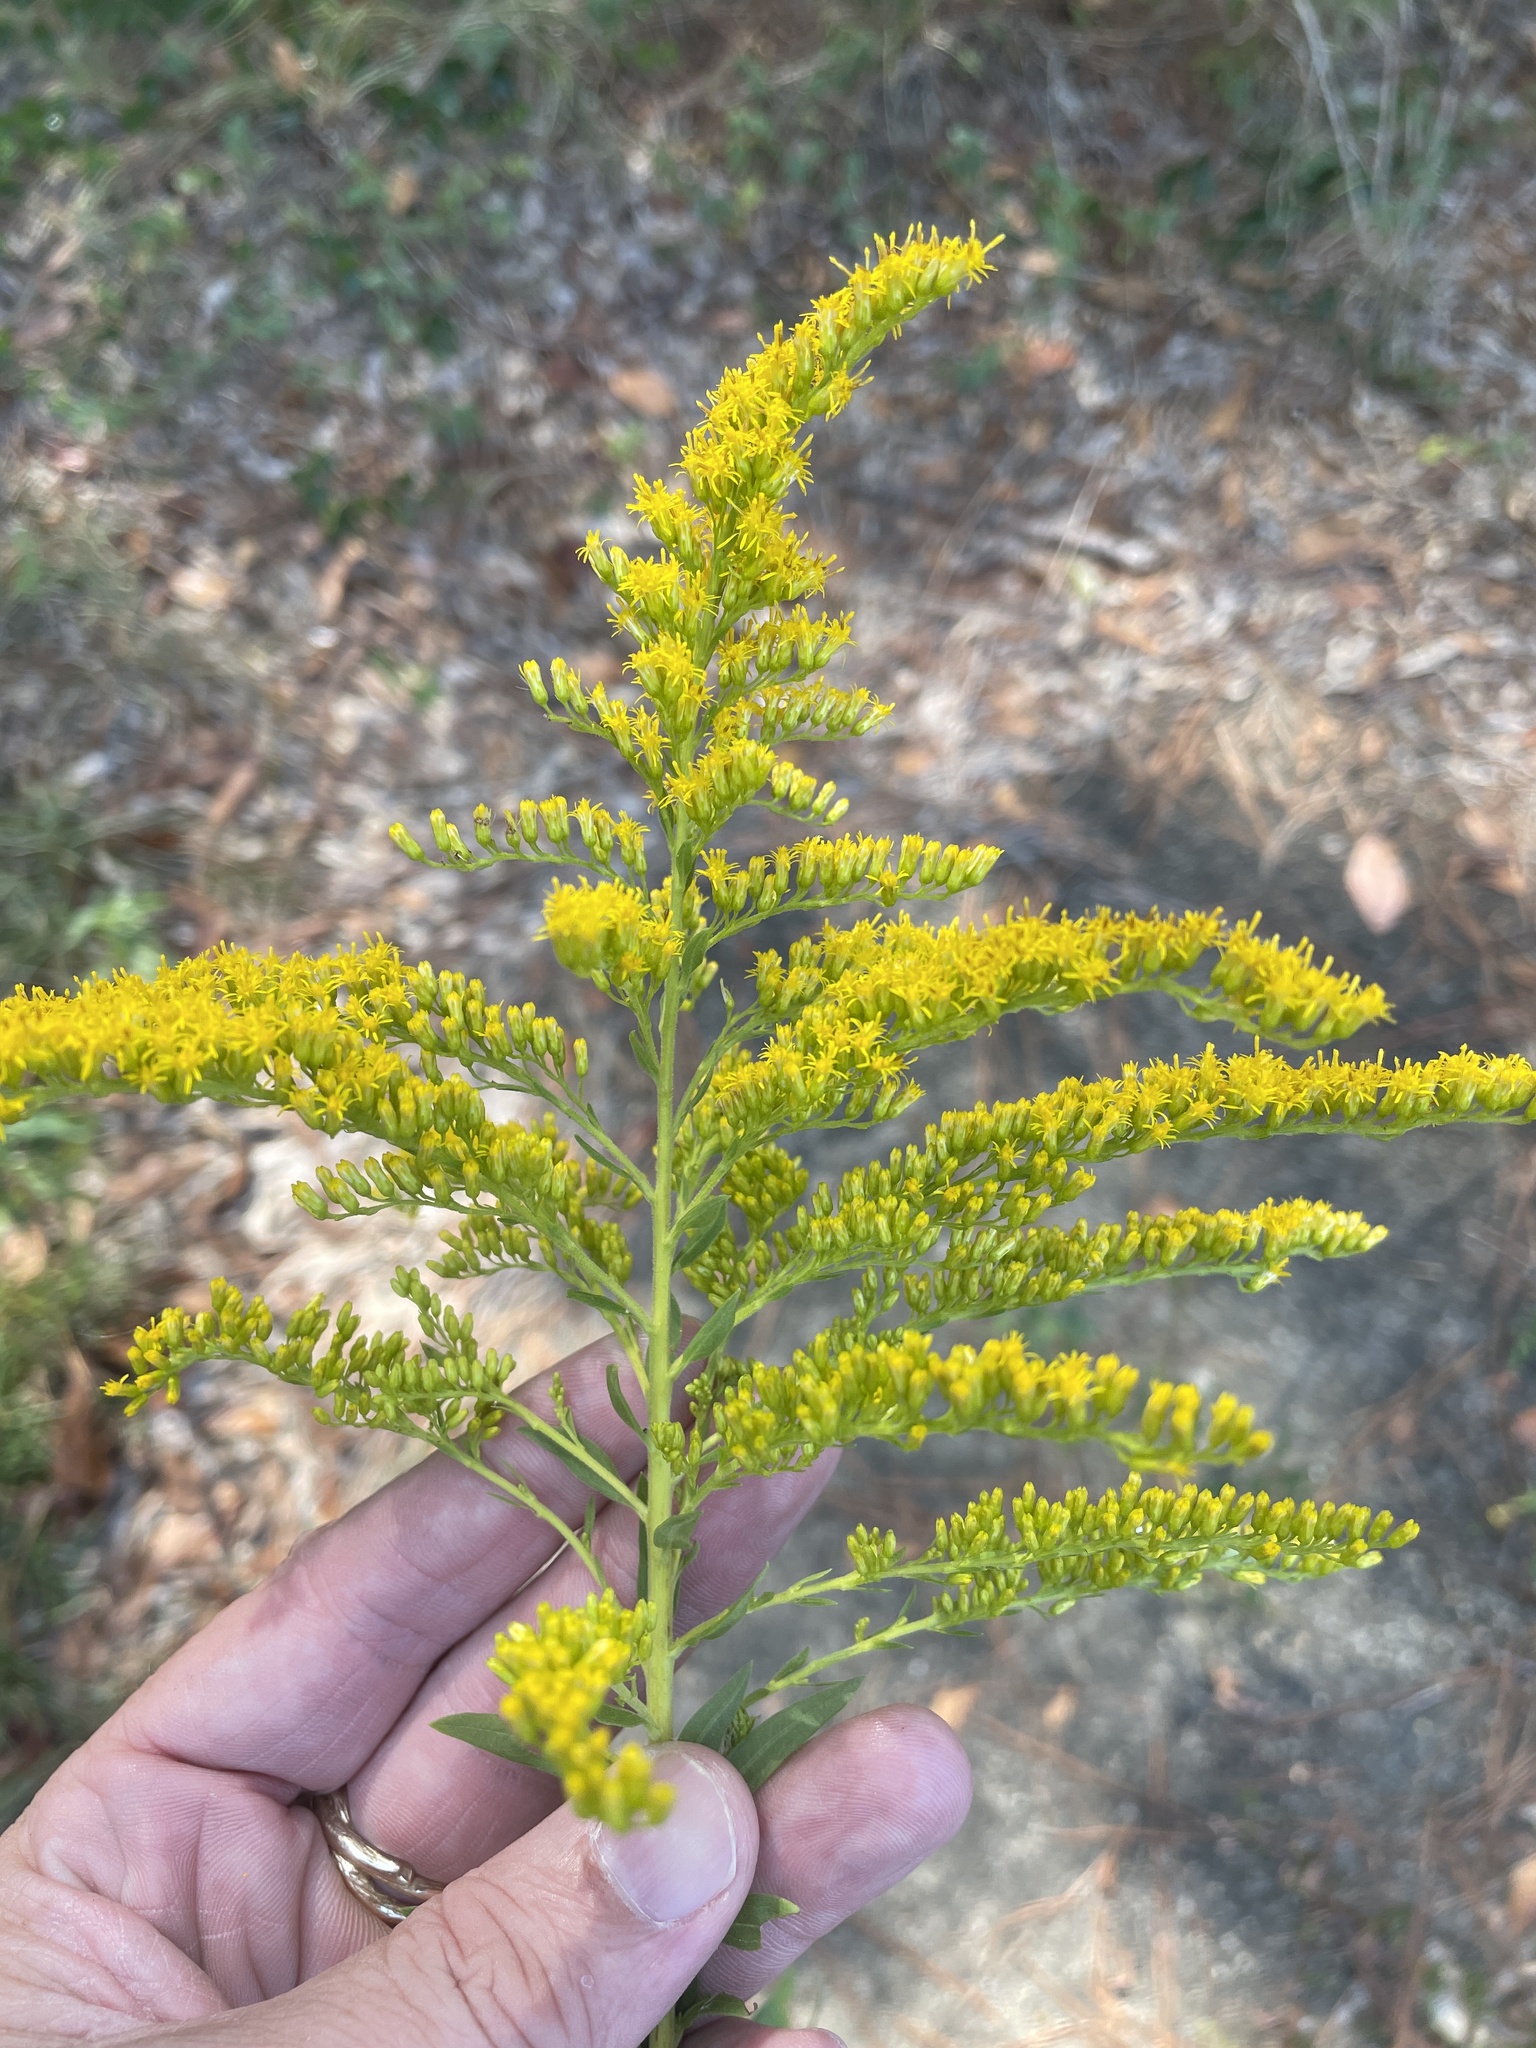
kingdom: Plantae
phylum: Tracheophyta
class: Magnoliopsida
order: Asterales
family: Asteraceae
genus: Solidago
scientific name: Solidago altissima
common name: Late goldenrod
